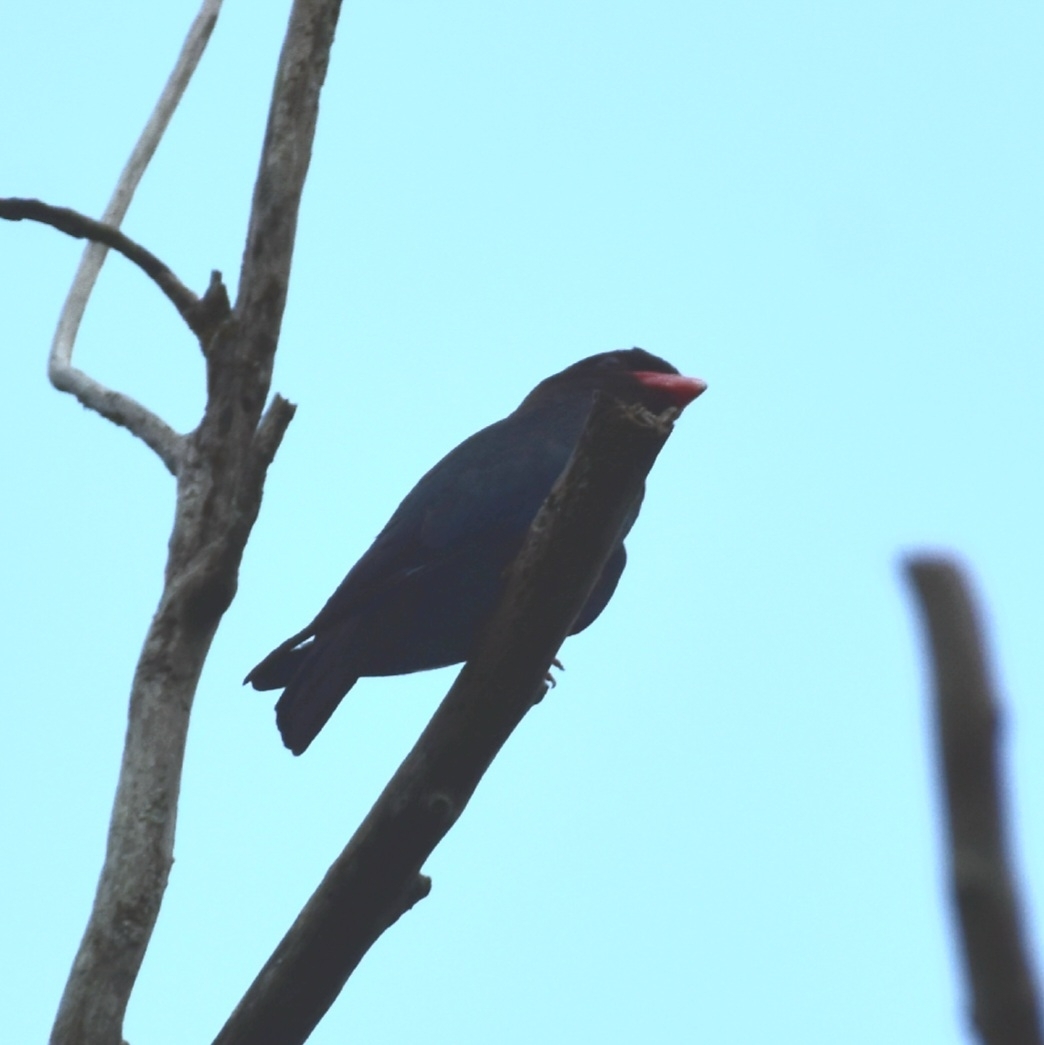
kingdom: Animalia
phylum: Chordata
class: Aves
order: Coraciiformes
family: Coraciidae
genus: Eurystomus
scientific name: Eurystomus orientalis
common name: Oriental dollarbird
